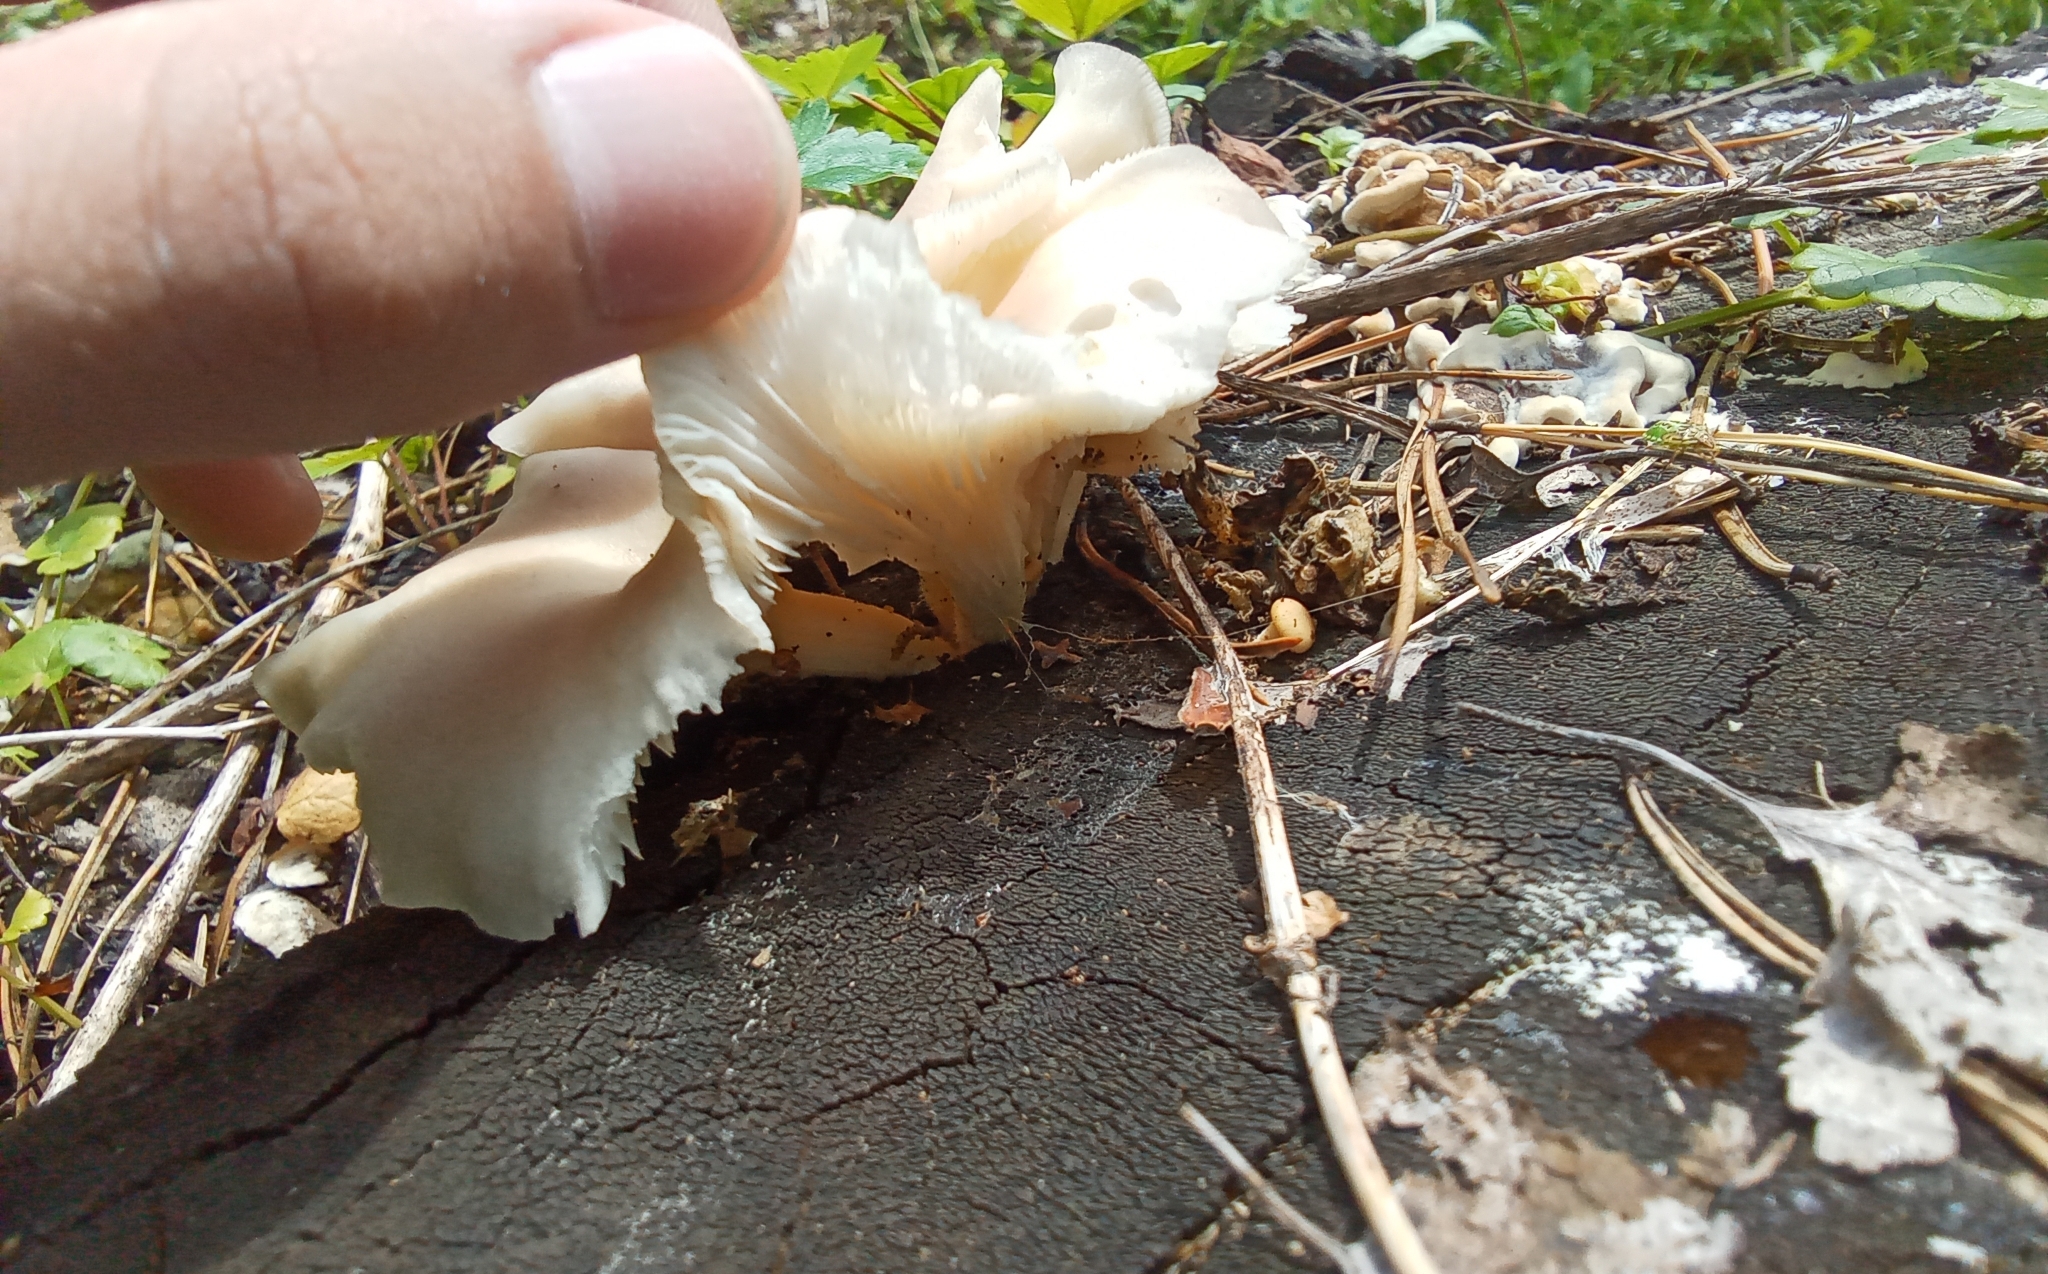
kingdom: Fungi
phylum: Basidiomycota
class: Agaricomycetes
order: Agaricales
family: Pleurotaceae
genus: Pleurotus
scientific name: Pleurotus pulmonarius
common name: Pale oyster
